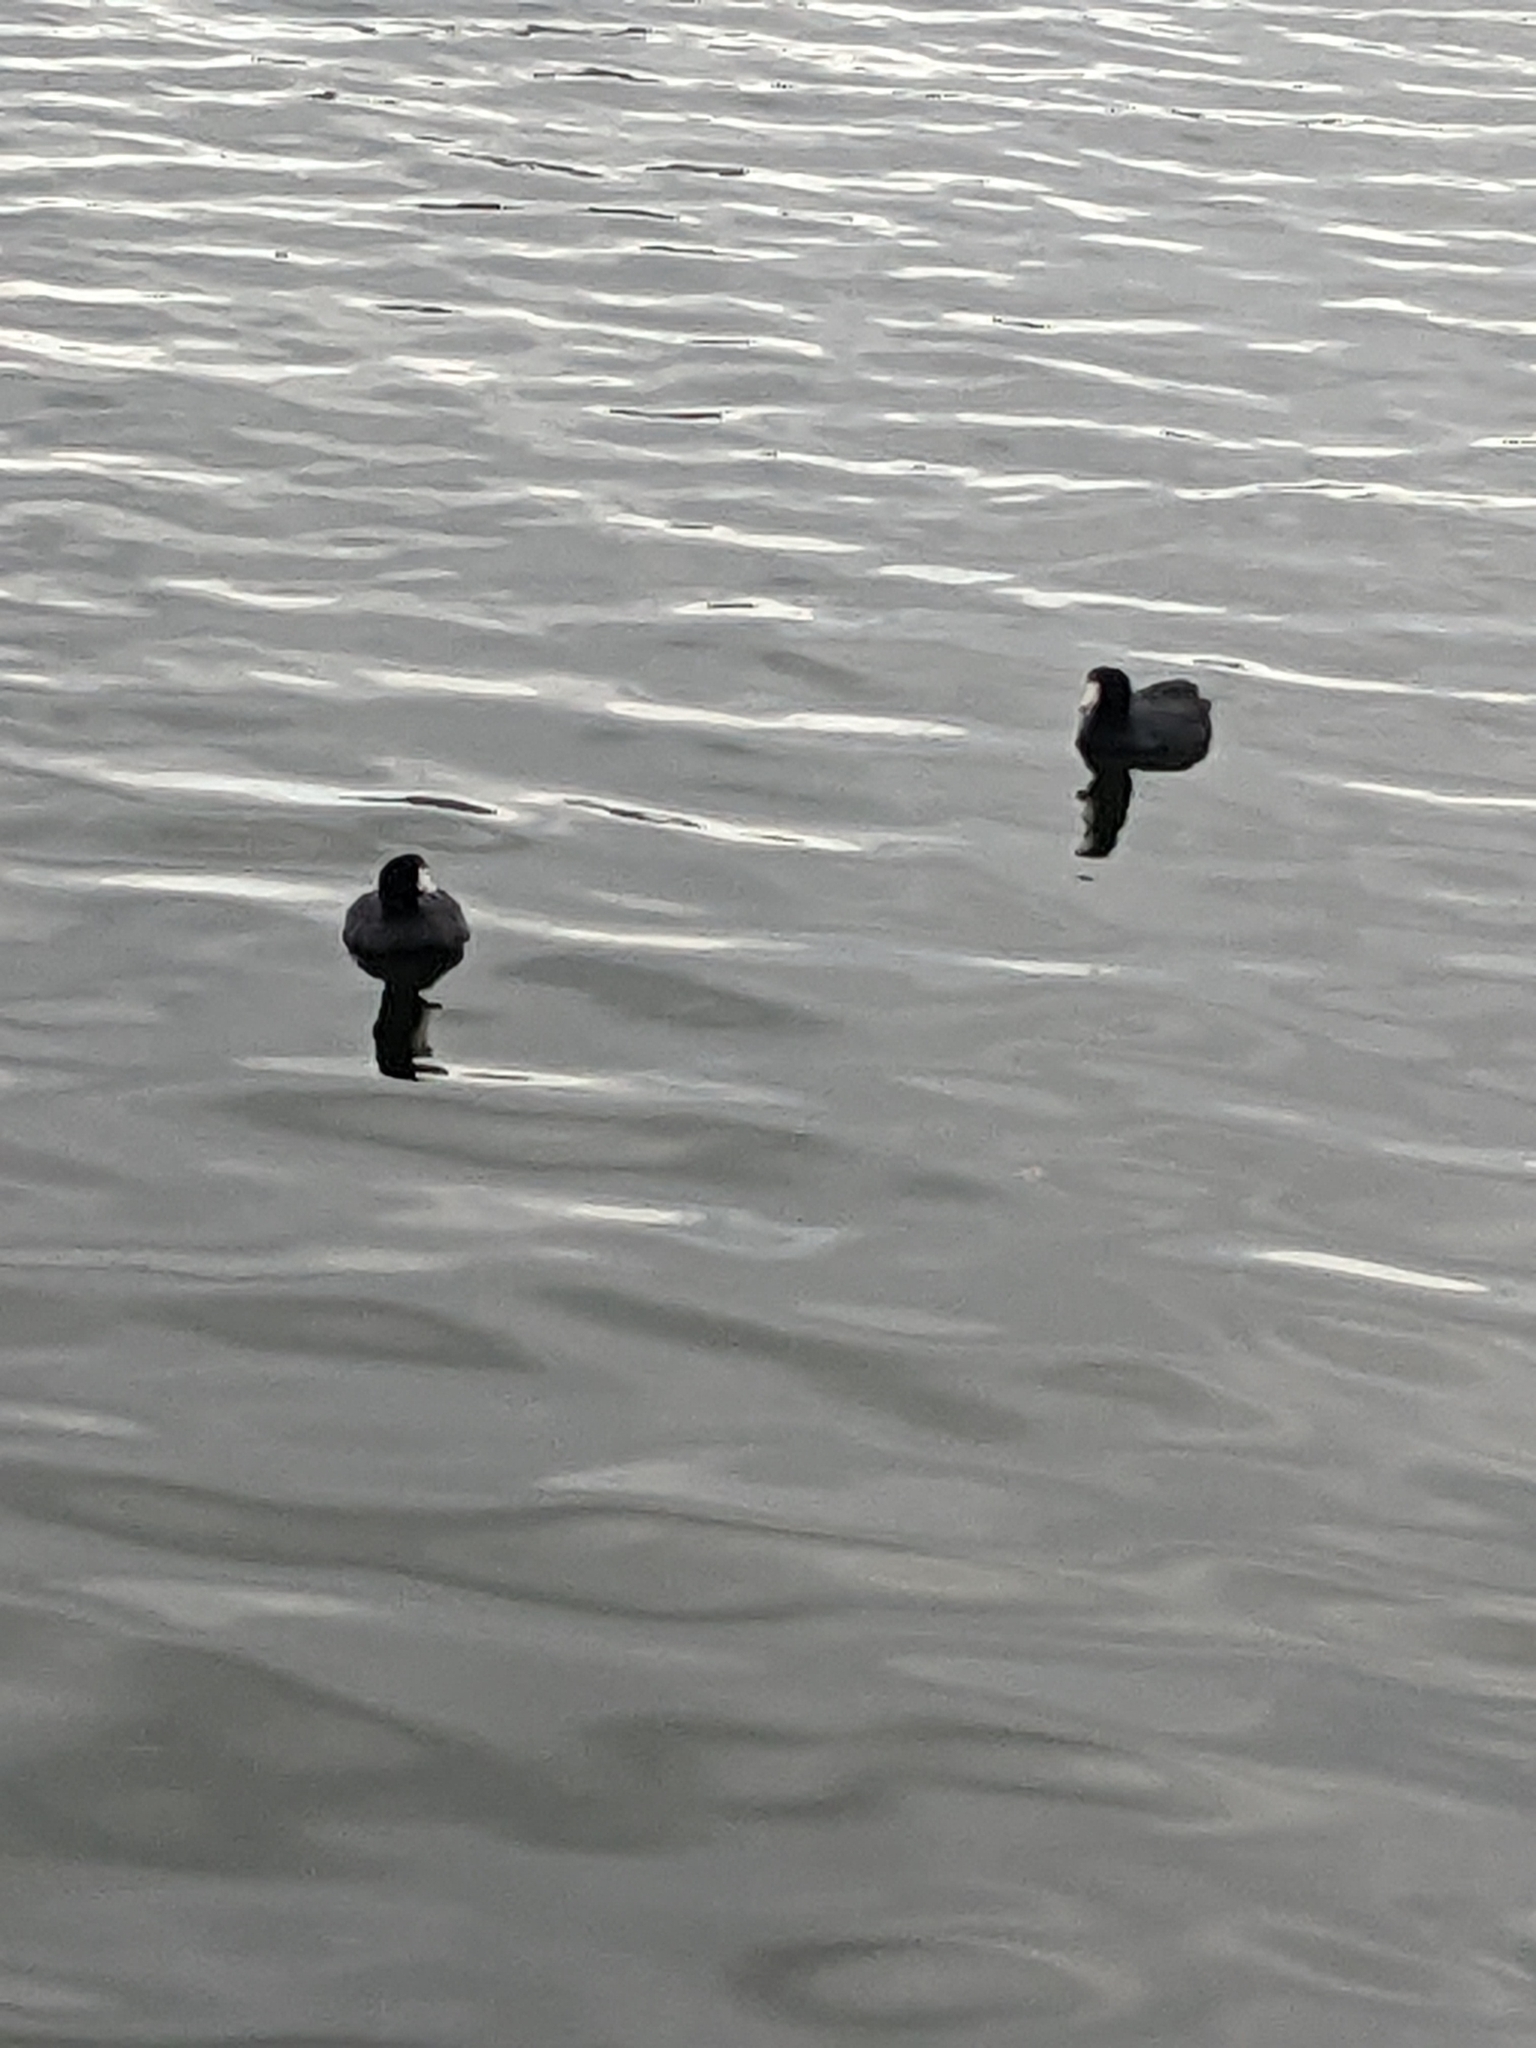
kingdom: Animalia
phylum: Chordata
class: Aves
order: Gruiformes
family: Rallidae
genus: Fulica
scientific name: Fulica americana
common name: American coot
